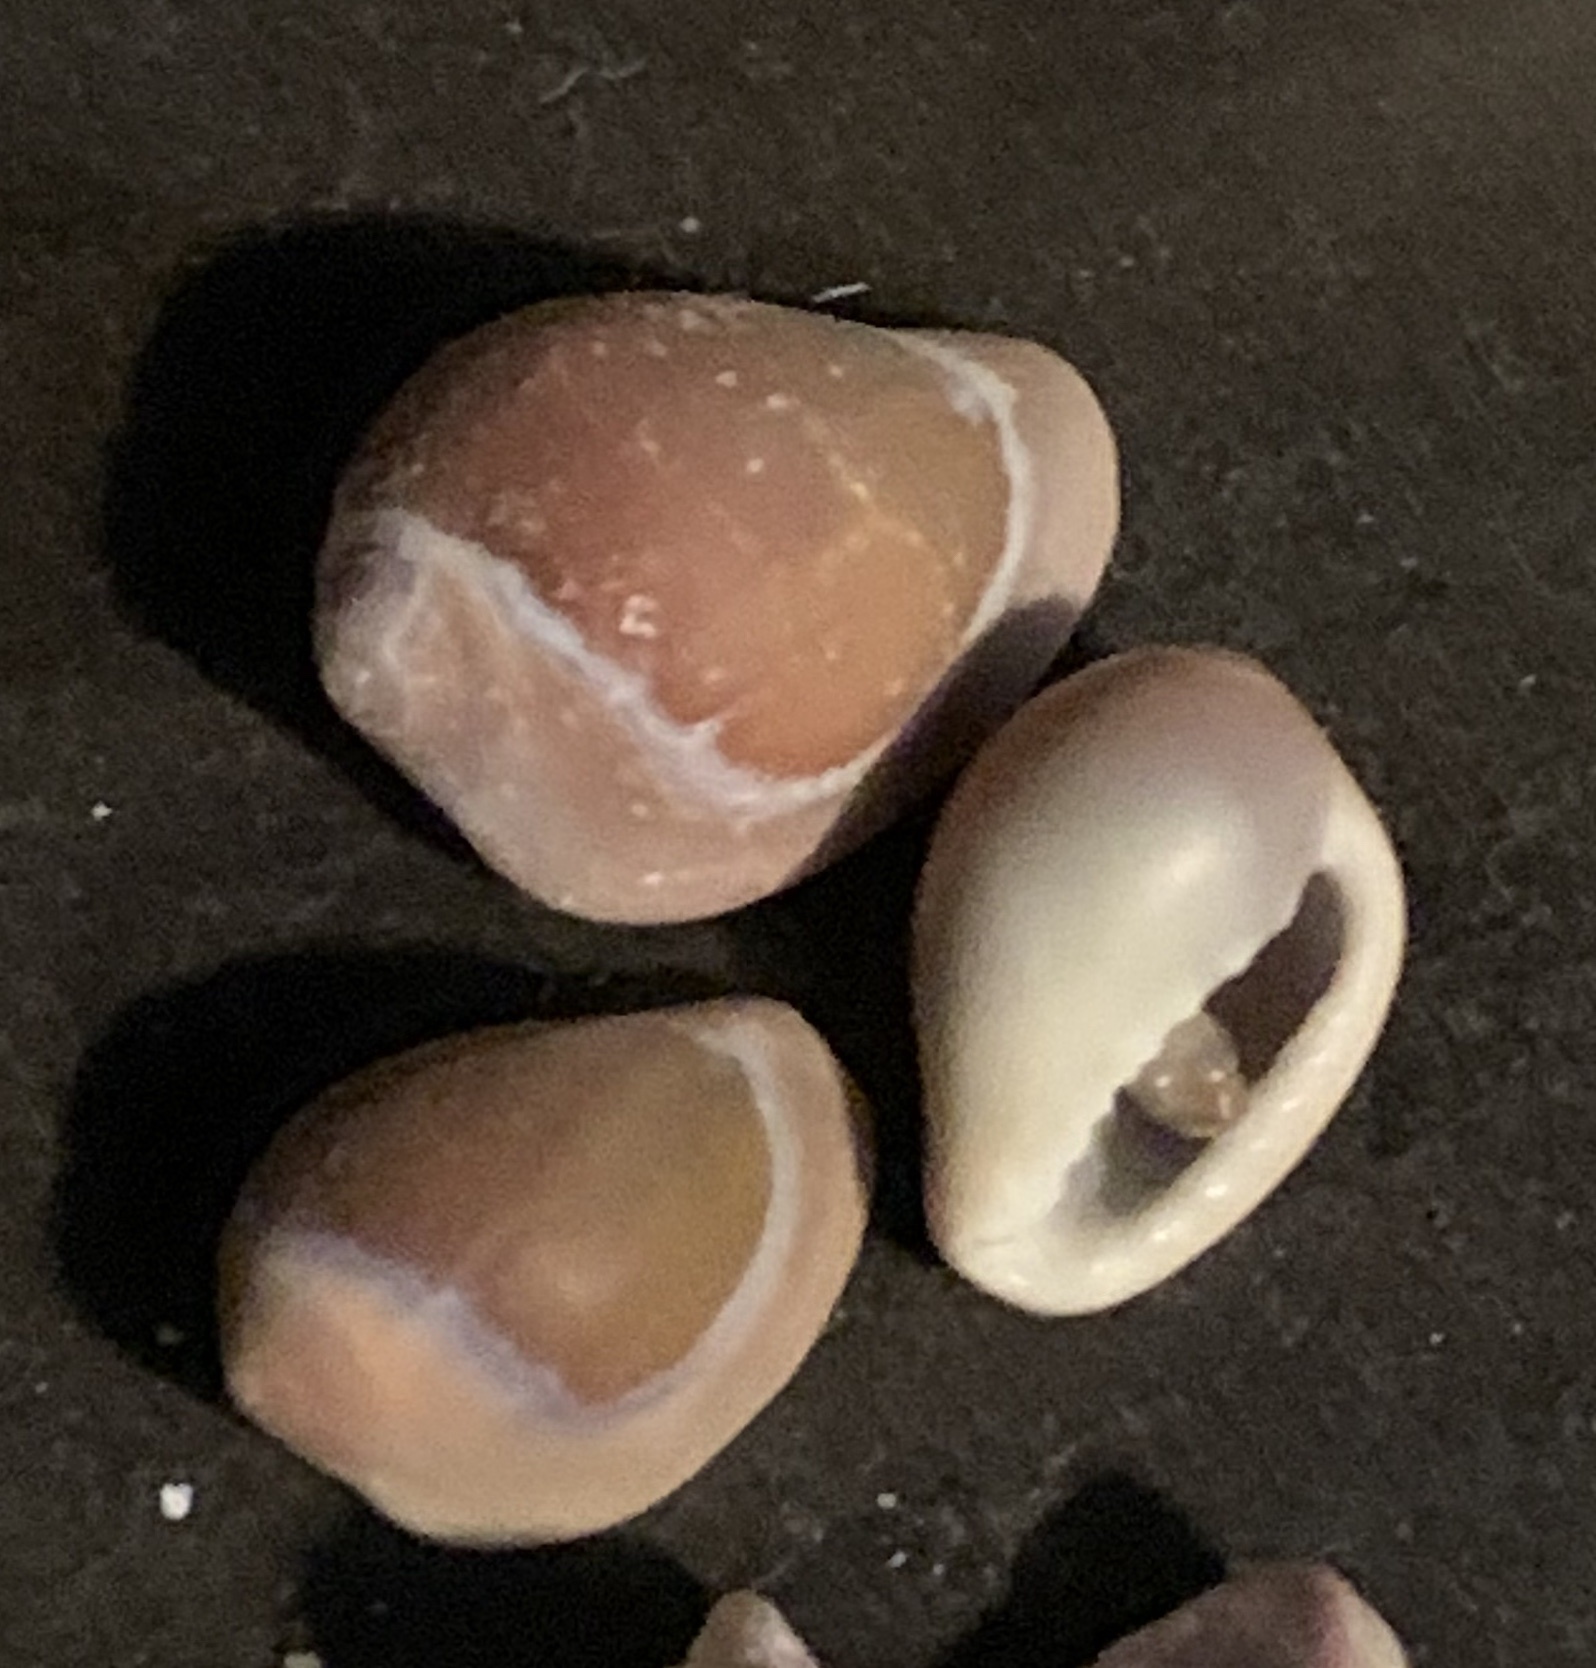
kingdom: Animalia
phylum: Mollusca
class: Gastropoda
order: Littorinimorpha
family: Eratoidae
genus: Hespererato
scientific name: Hespererato vitellina
